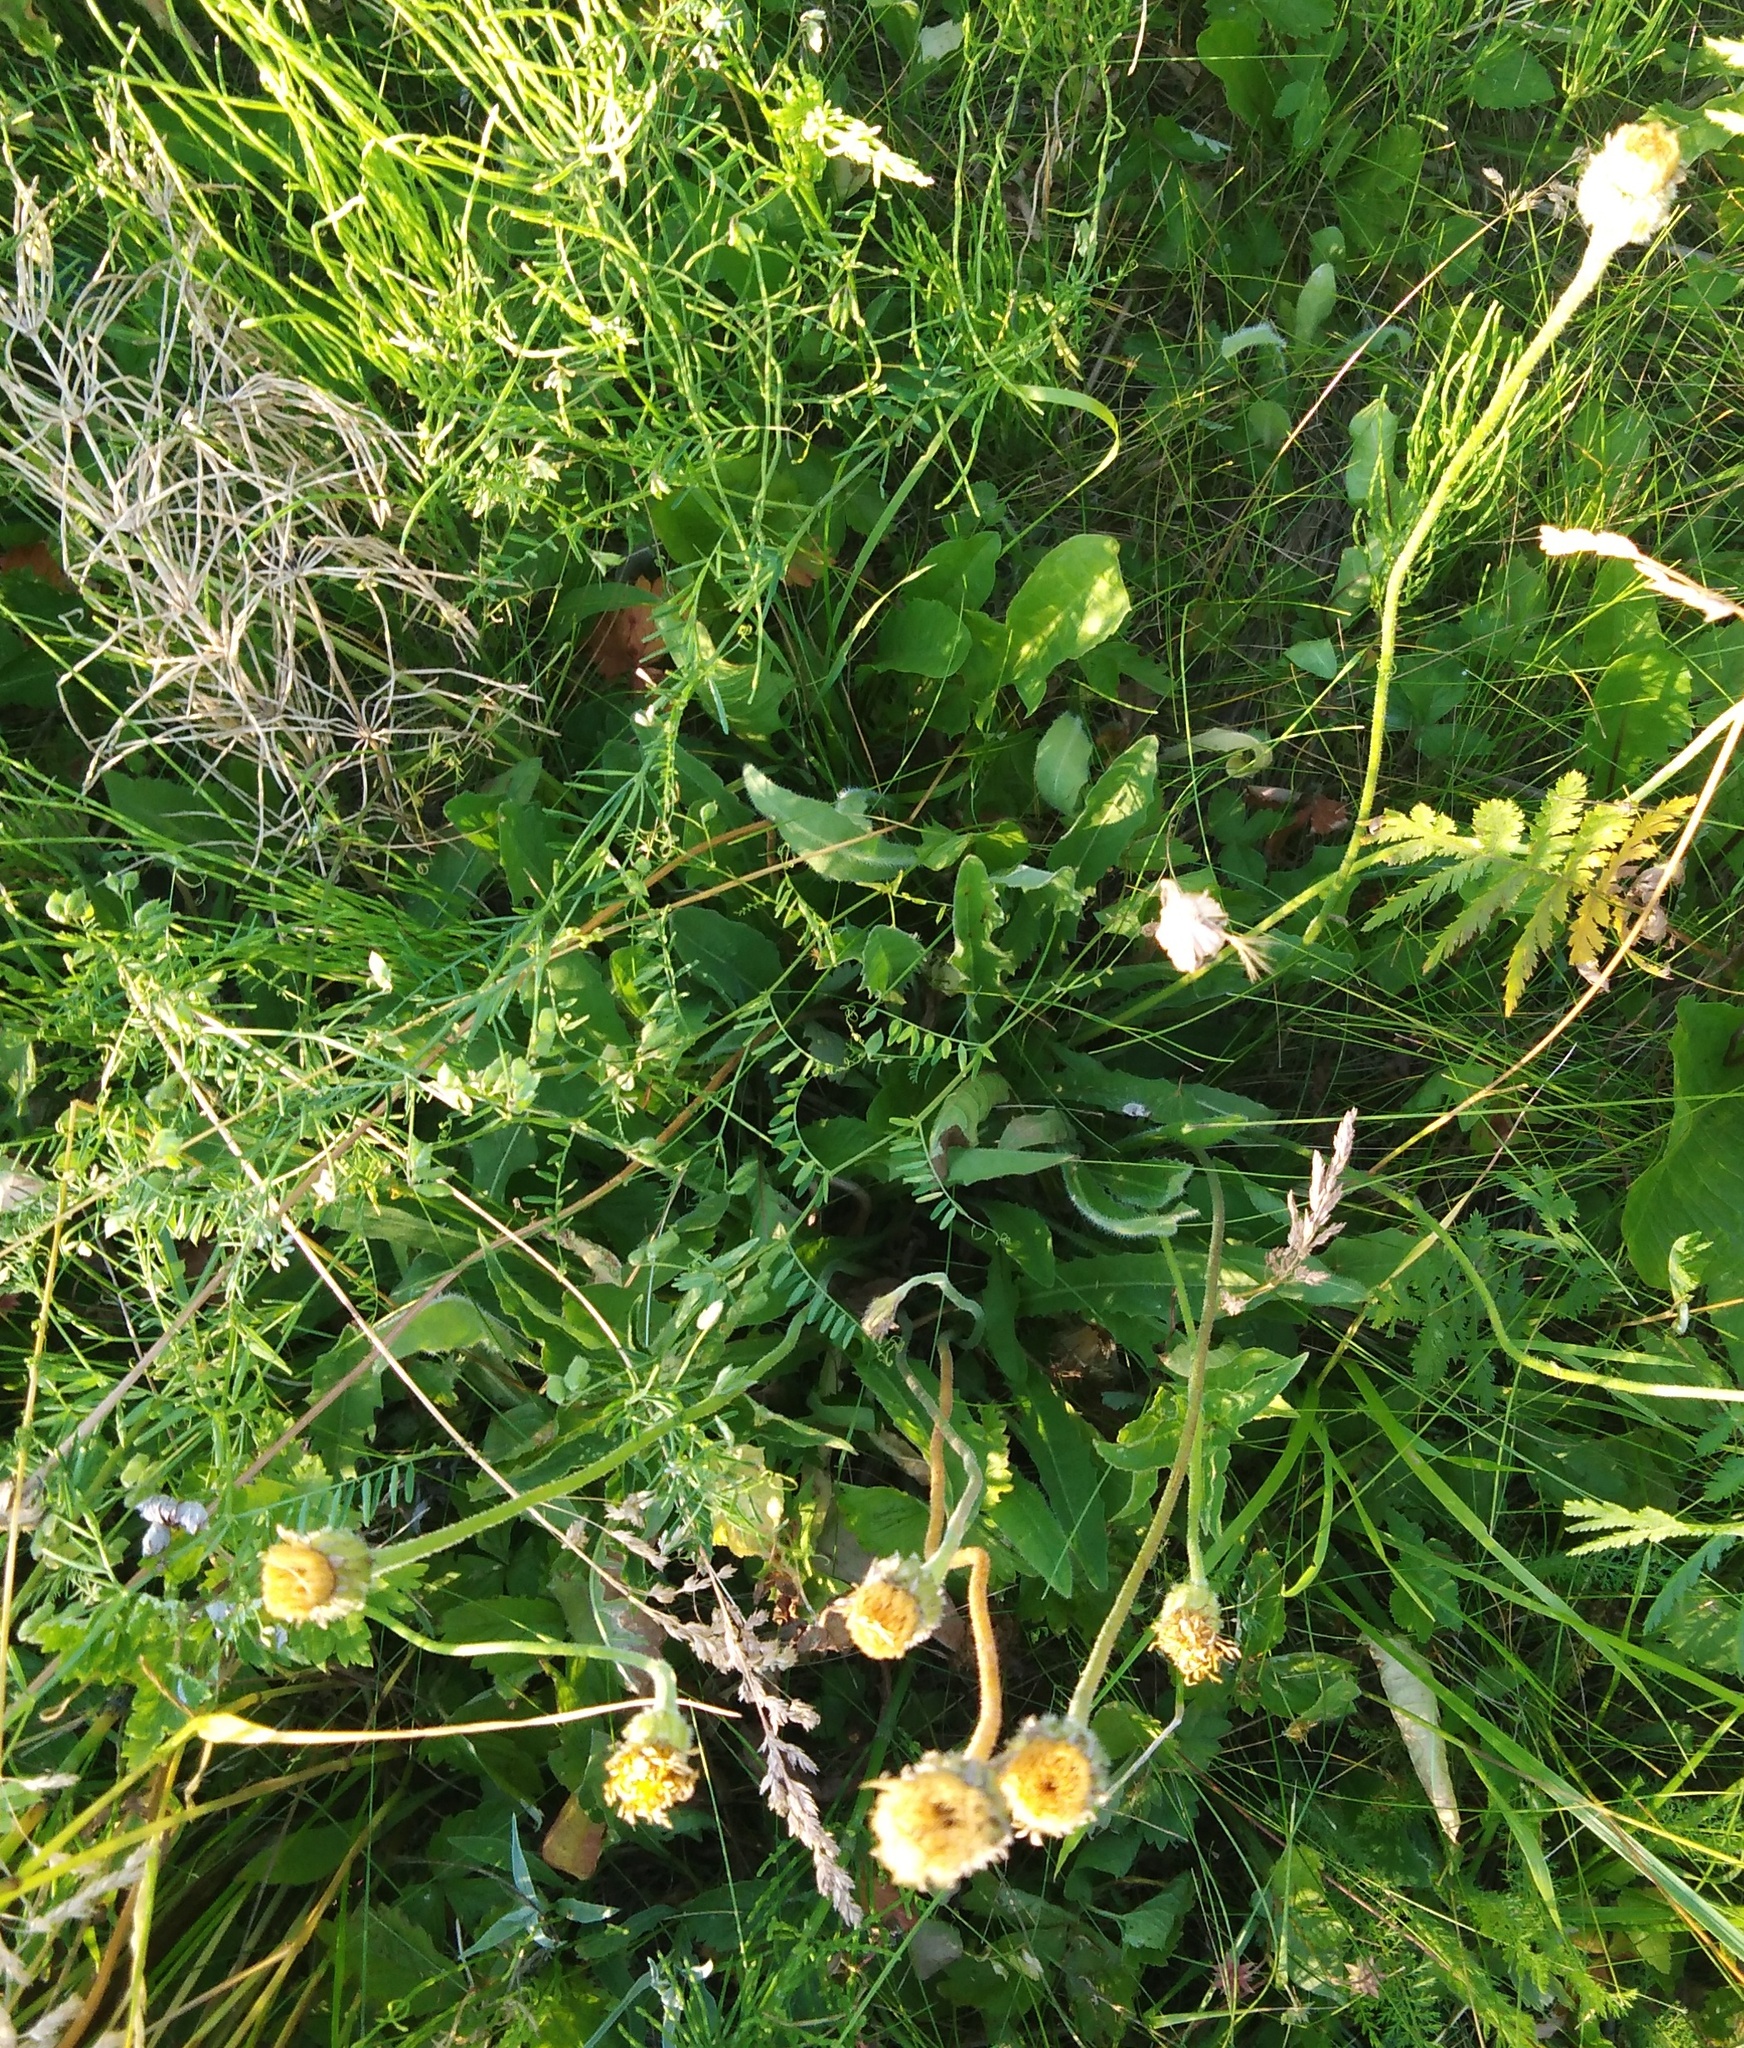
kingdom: Plantae
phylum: Tracheophyta
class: Magnoliopsida
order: Asterales
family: Asteraceae
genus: Leontodon
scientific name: Leontodon hispidus
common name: Rough hawkbit
